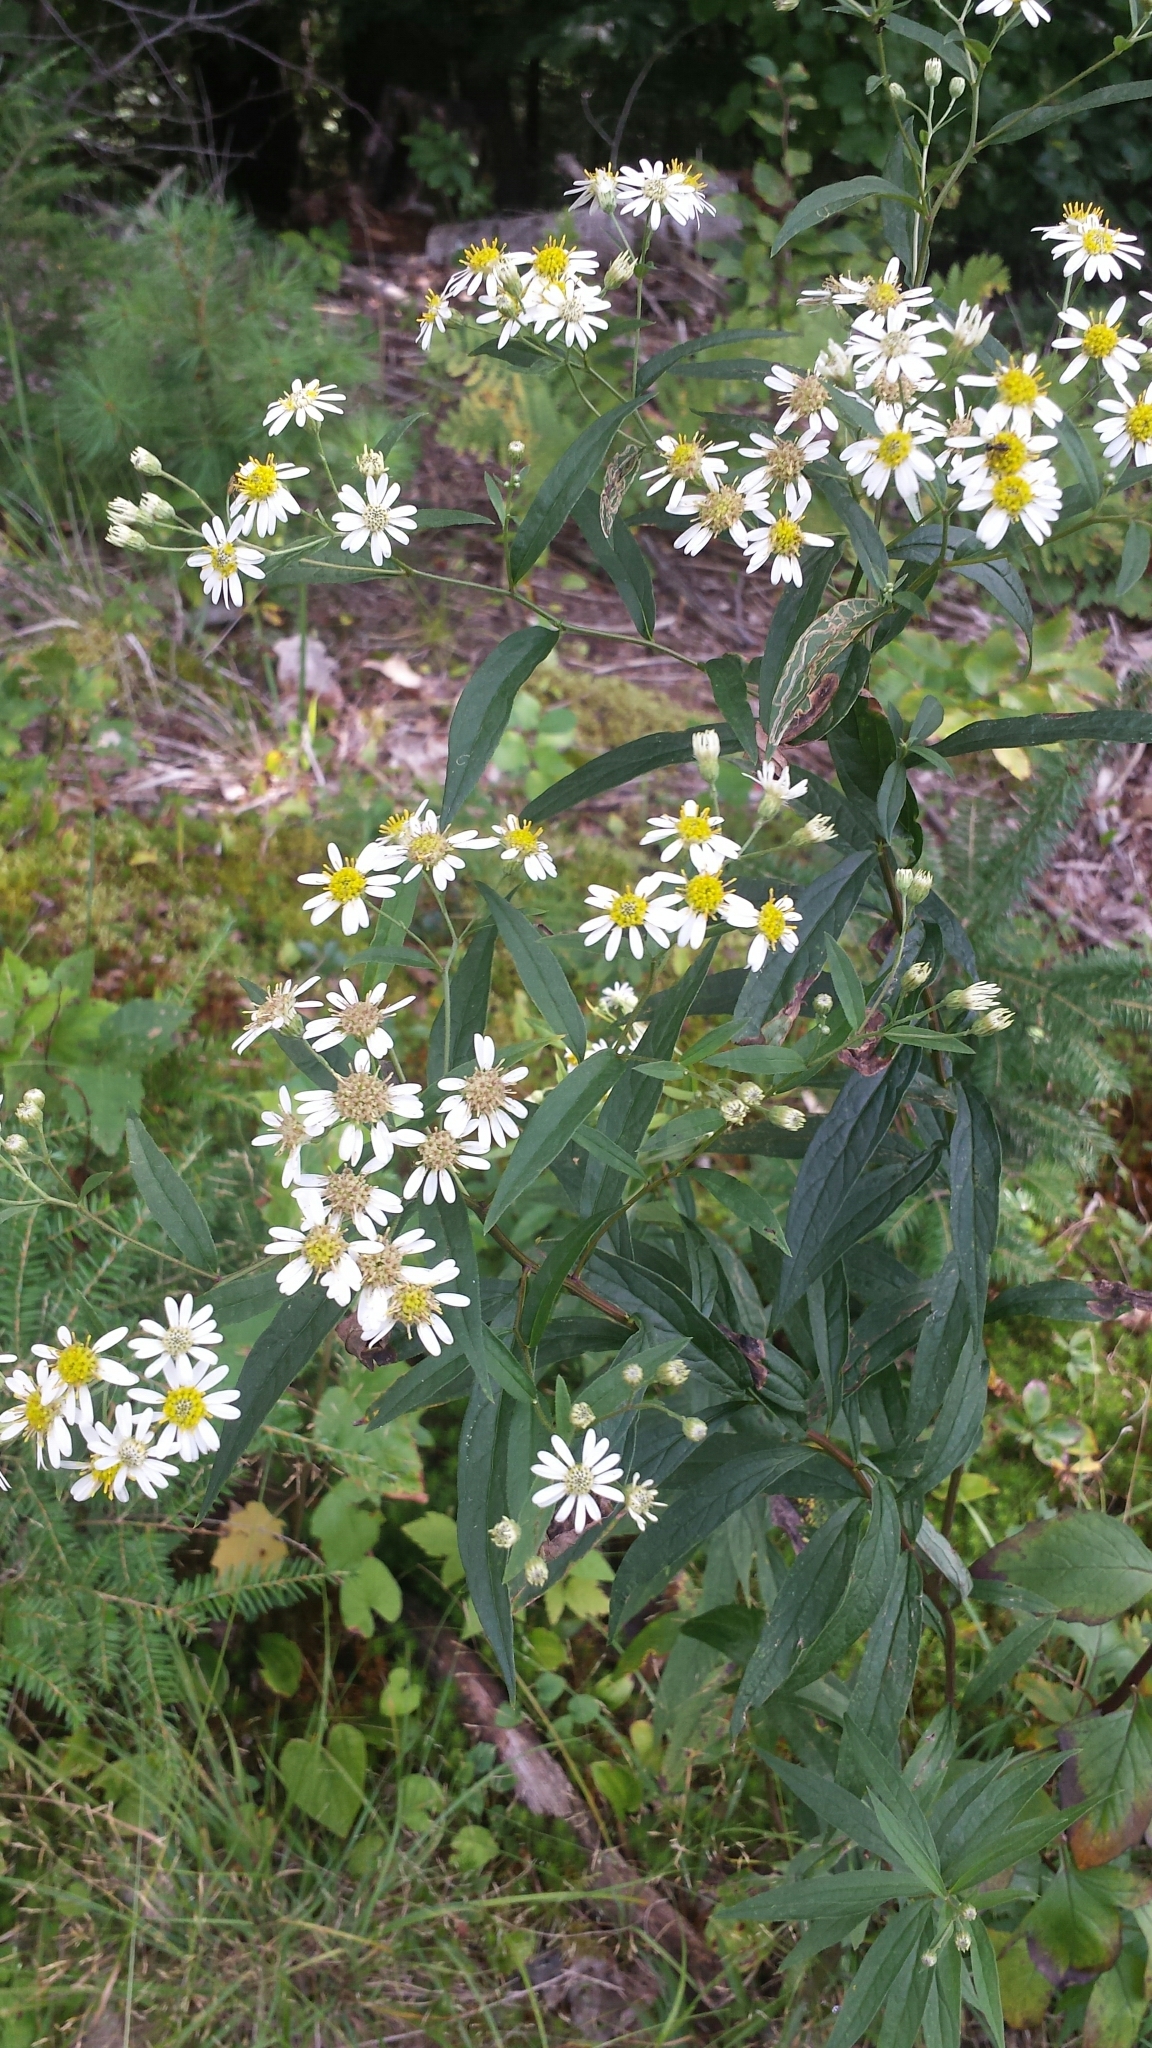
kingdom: Plantae
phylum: Tracheophyta
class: Magnoliopsida
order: Asterales
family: Asteraceae
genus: Doellingeria
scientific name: Doellingeria umbellata
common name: Flat-top white aster
